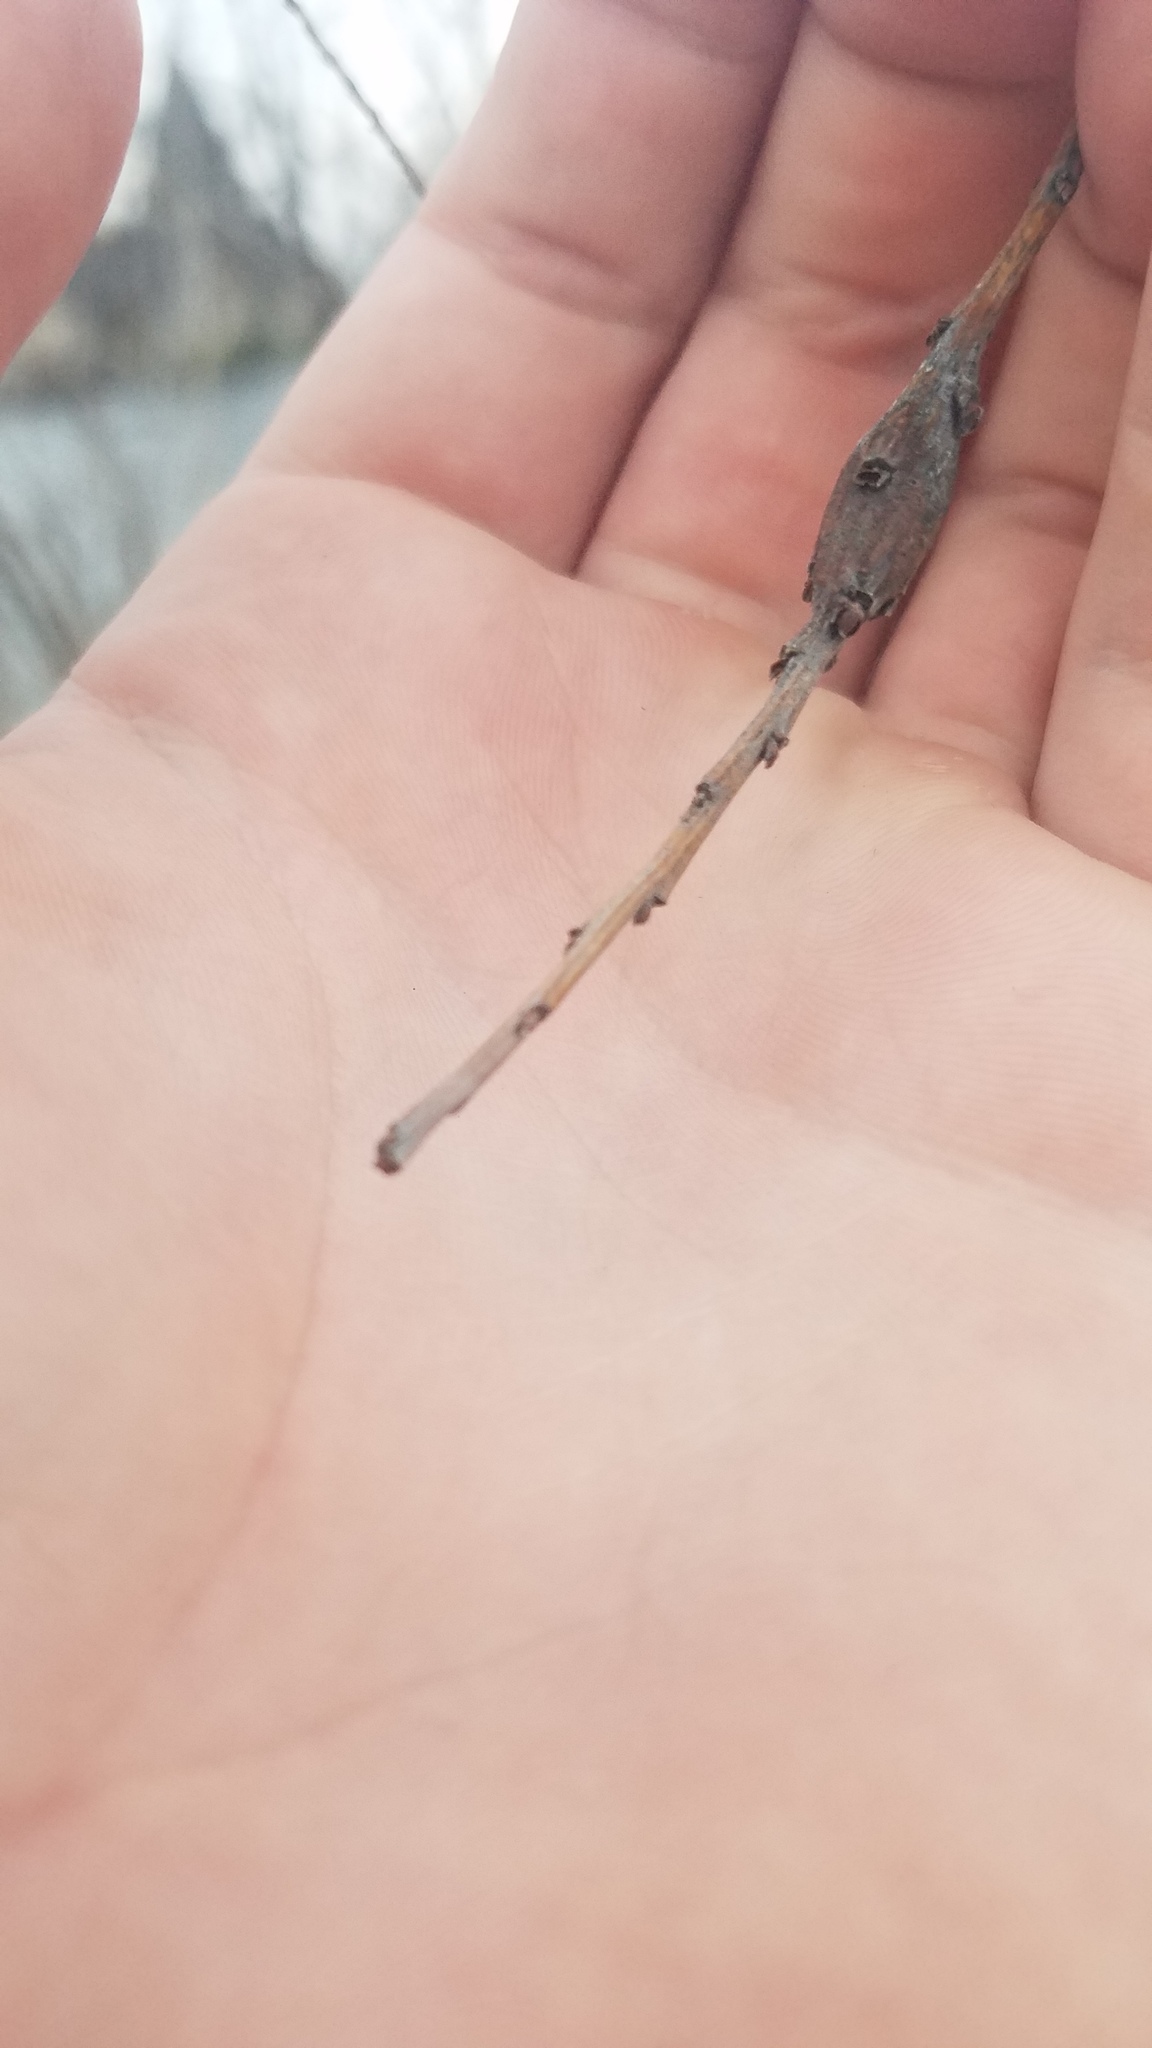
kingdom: Animalia
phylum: Arthropoda
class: Insecta
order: Diptera
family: Cecidomyiidae
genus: Thecodiplosis
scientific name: Thecodiplosis pinirigidae
